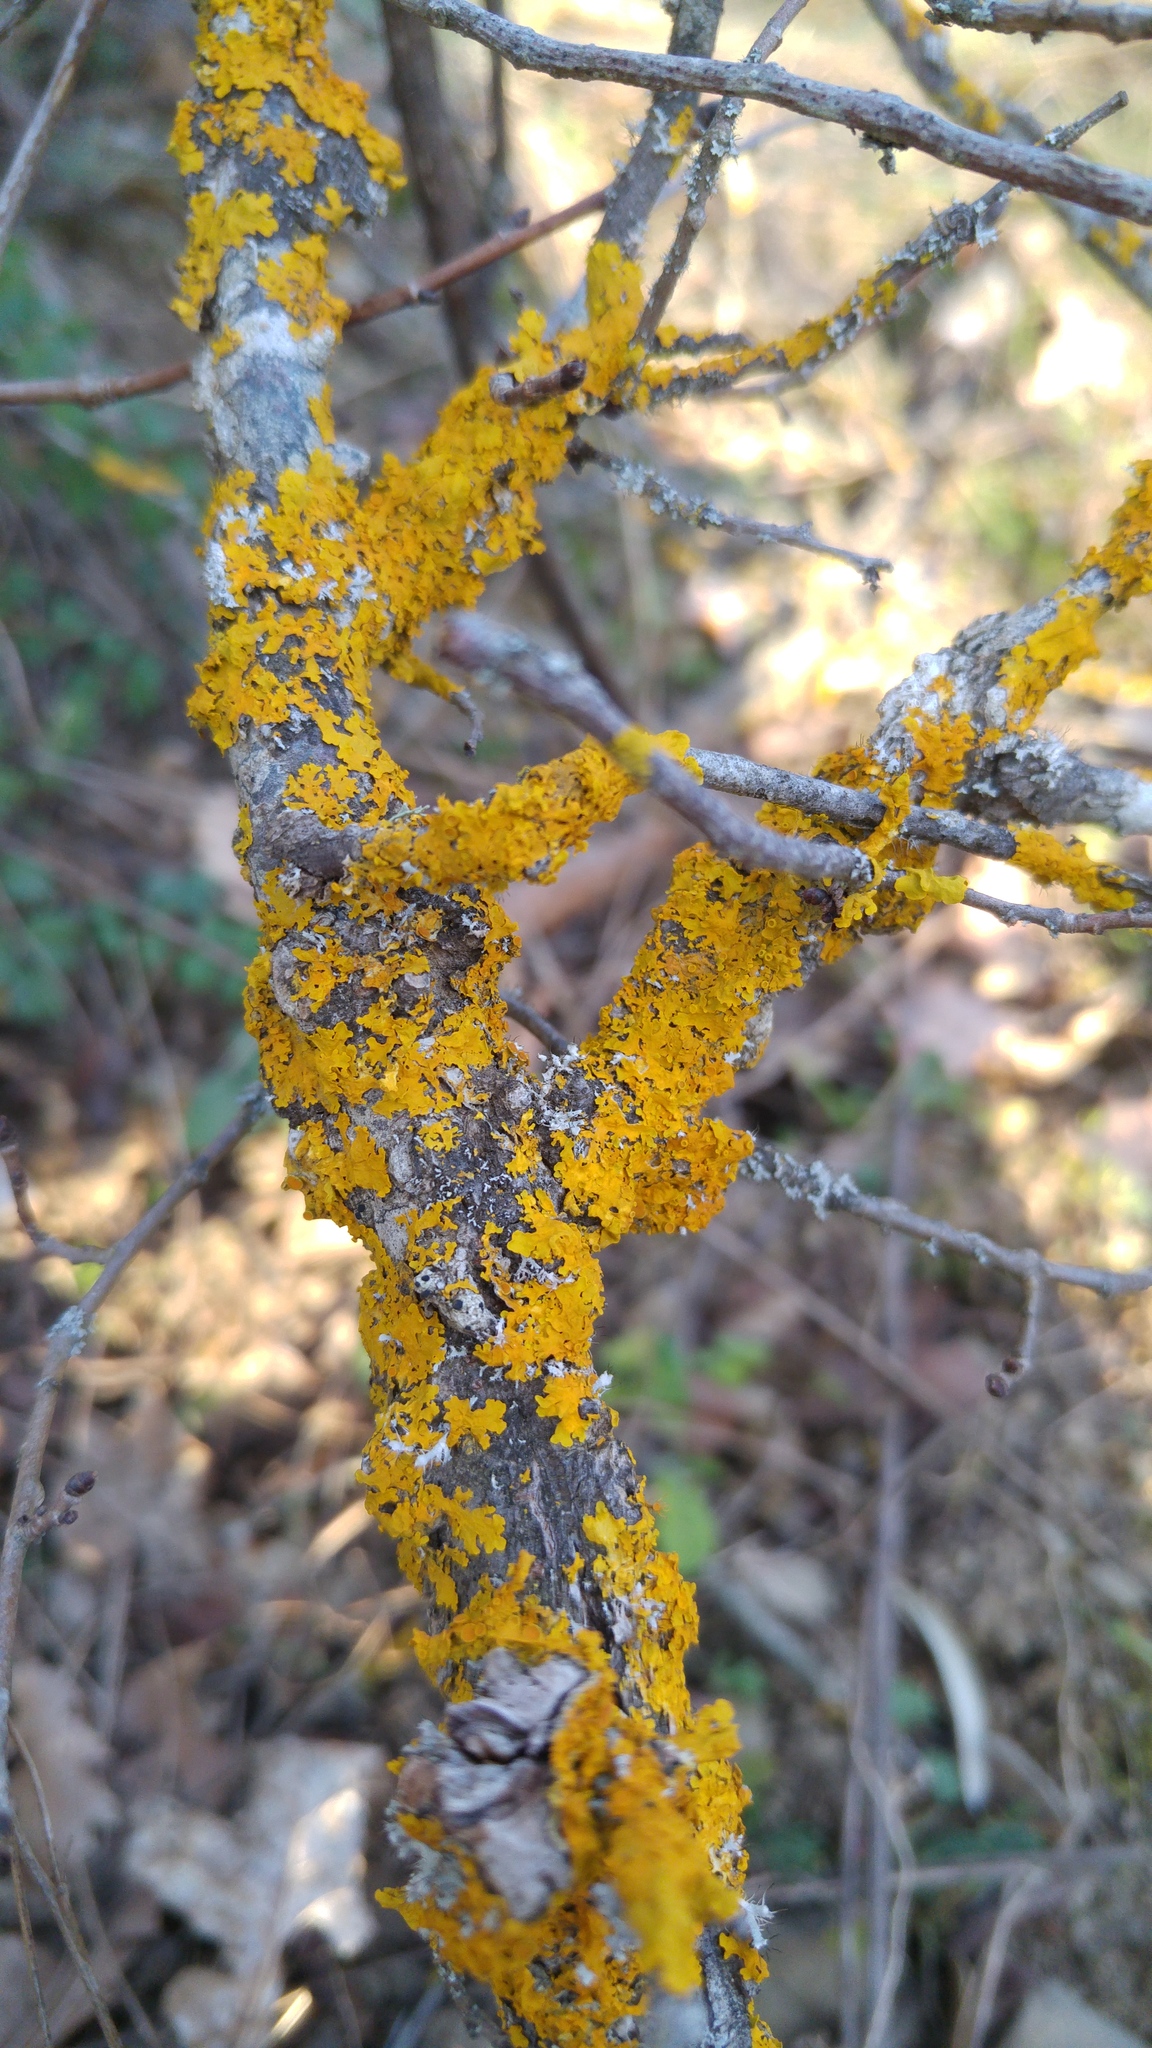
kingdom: Fungi
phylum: Ascomycota
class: Lecanoromycetes
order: Teloschistales
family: Teloschistaceae
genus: Xanthoria
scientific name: Xanthoria parietina
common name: Common orange lichen
